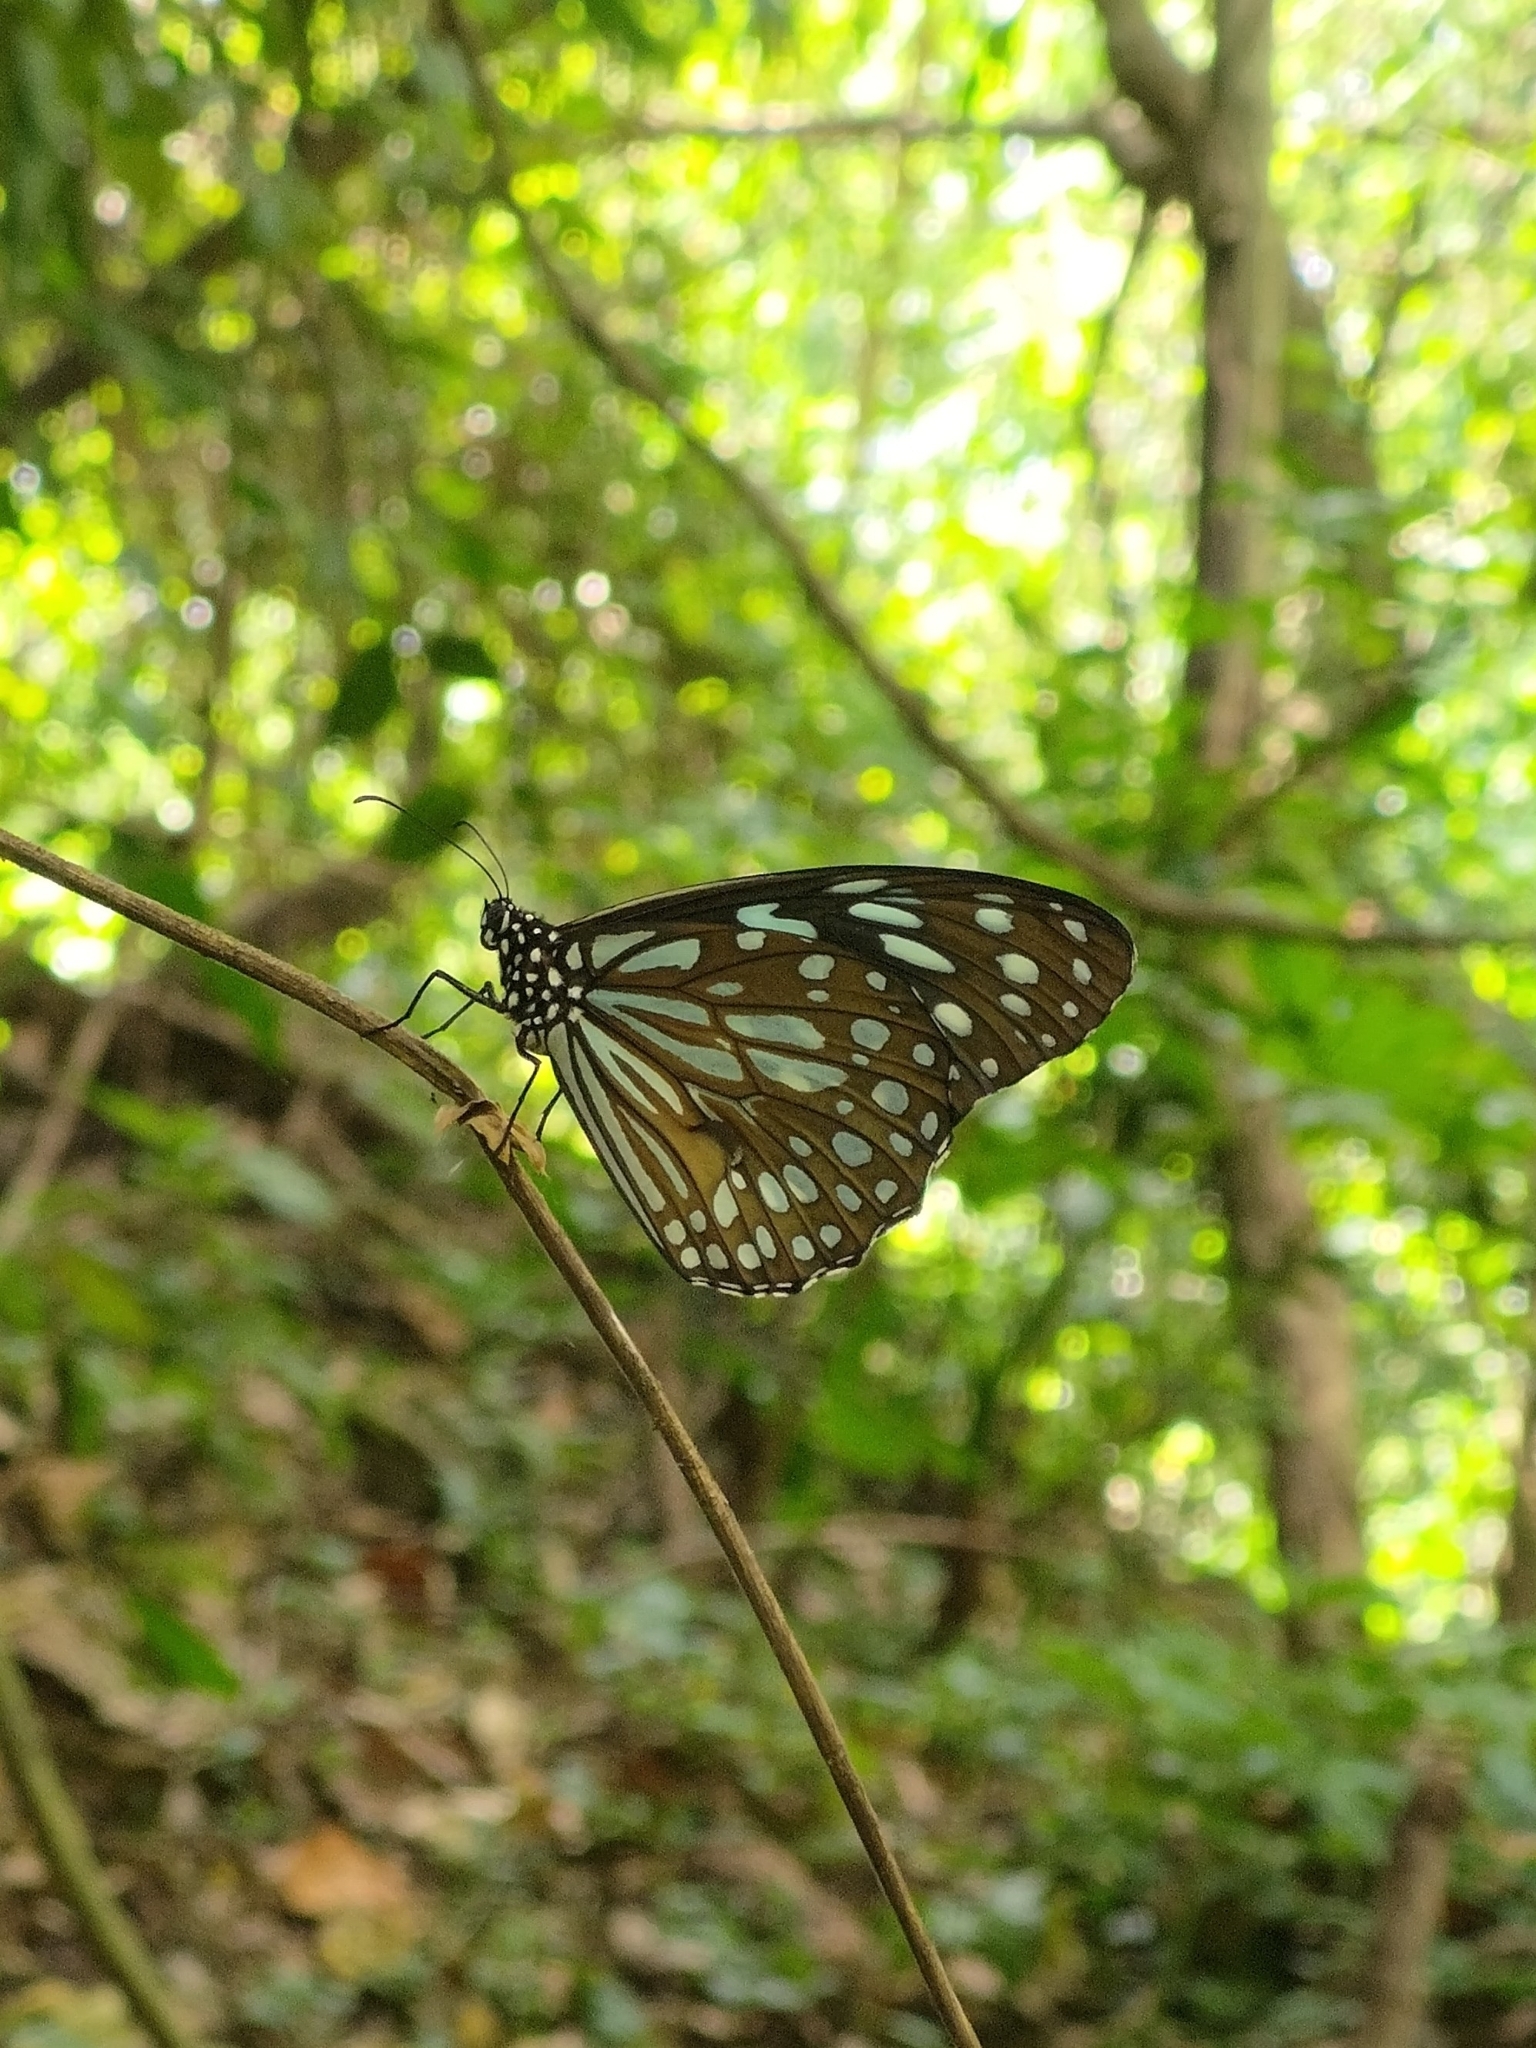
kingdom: Animalia
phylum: Arthropoda
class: Insecta
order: Lepidoptera
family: Nymphalidae
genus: Tirumala
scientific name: Tirumala limniace
